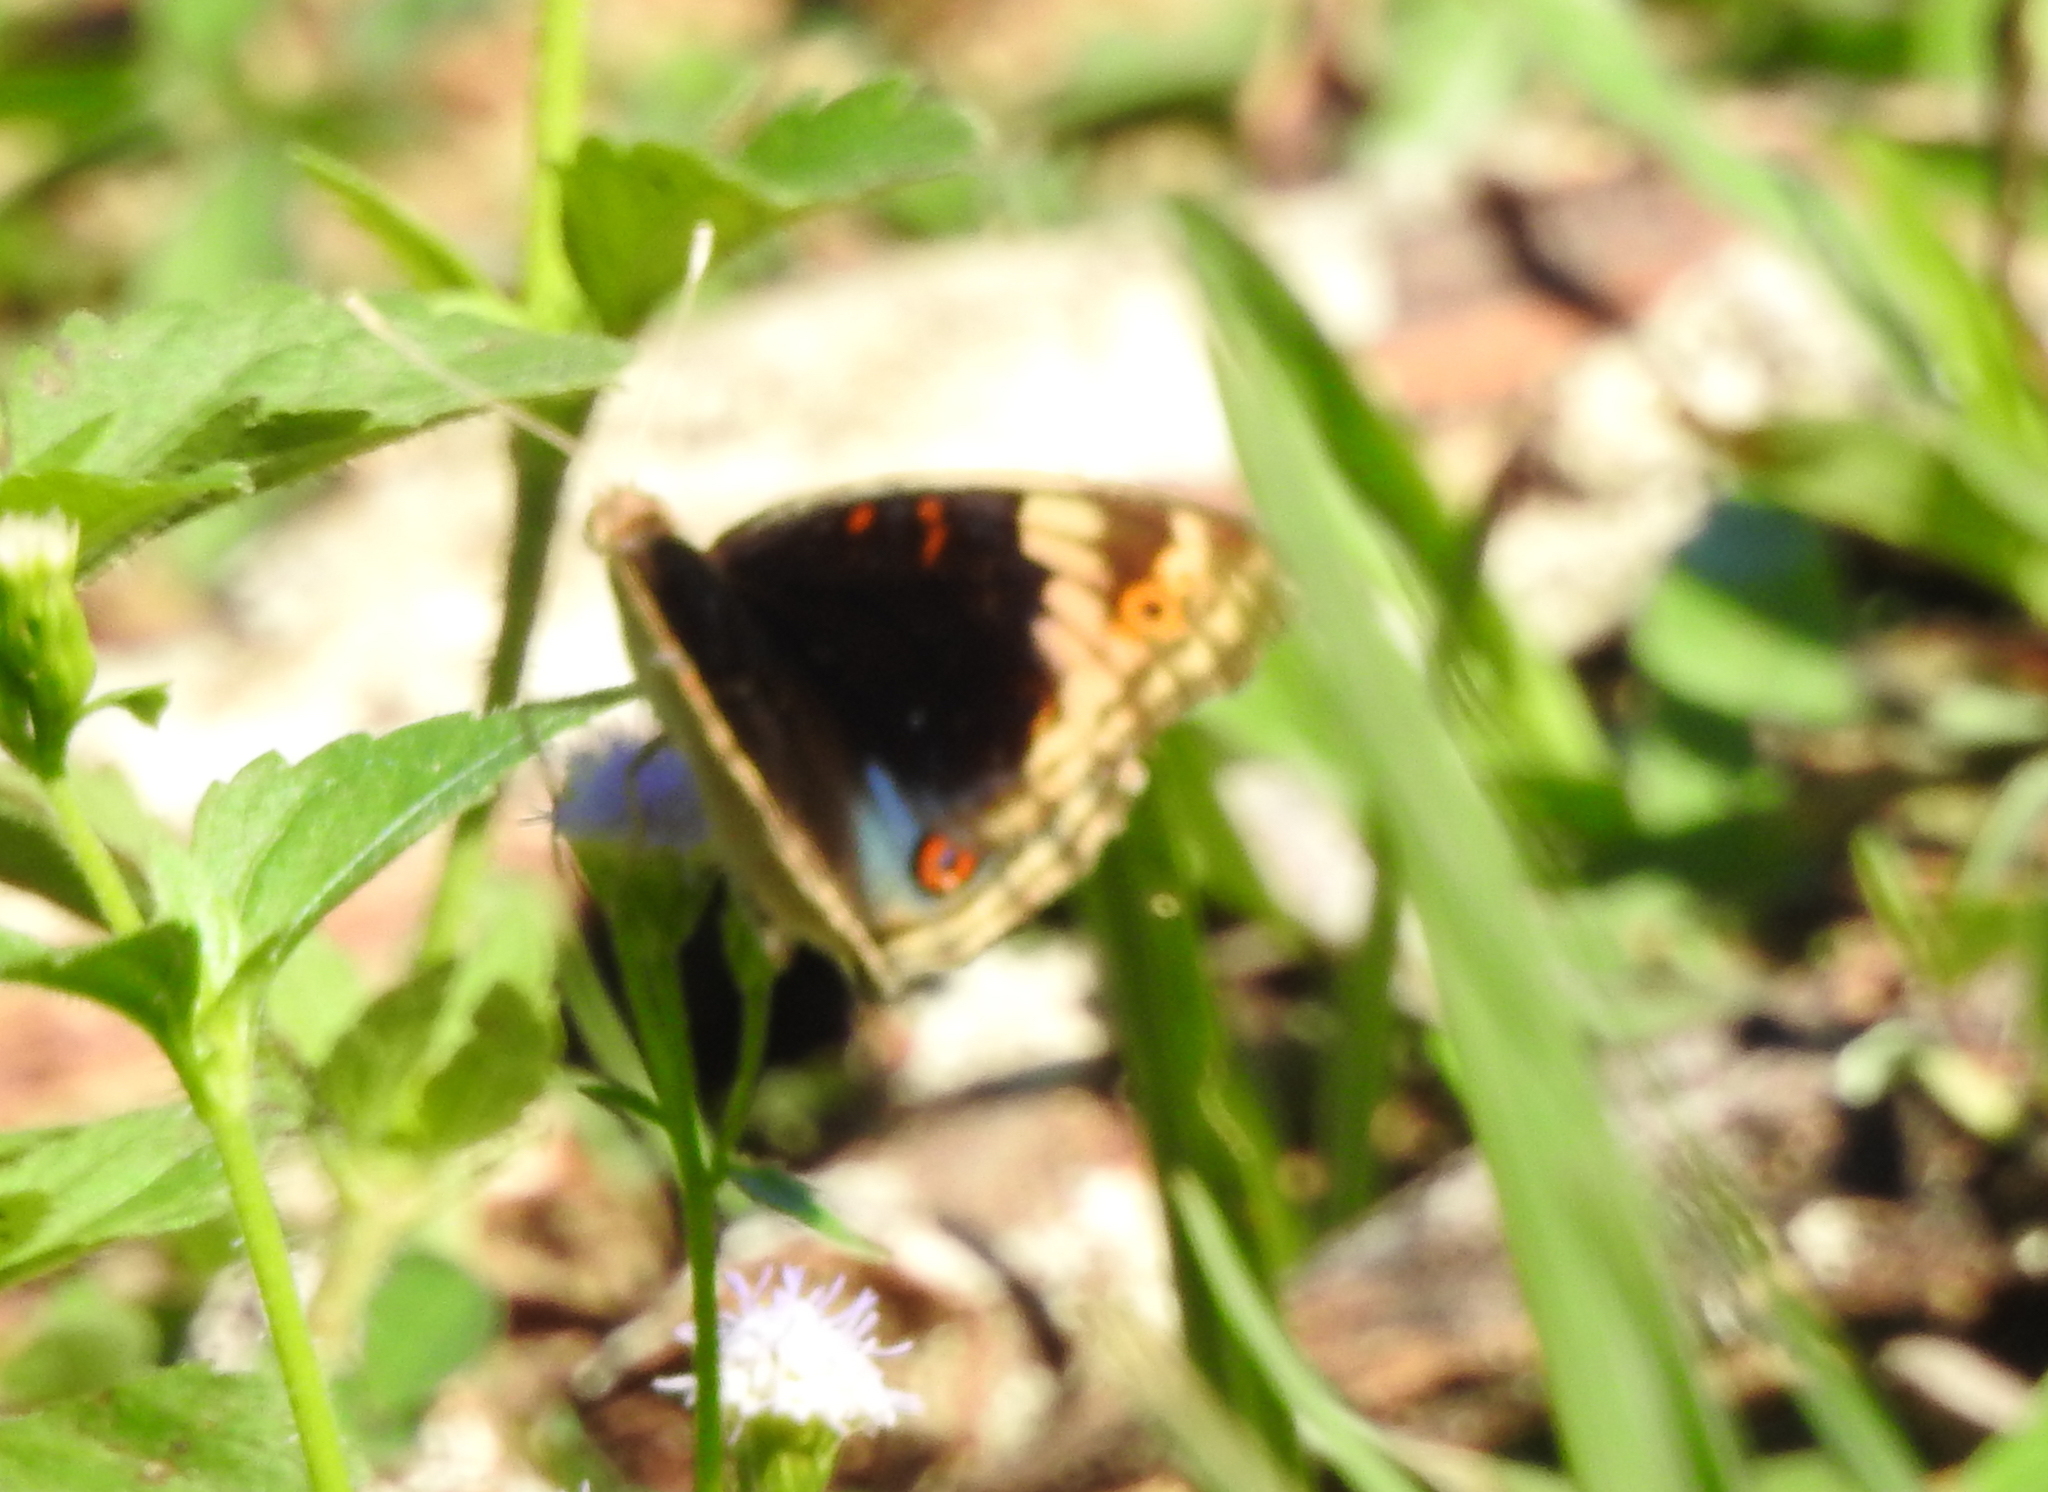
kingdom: Animalia
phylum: Arthropoda
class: Insecta
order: Lepidoptera
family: Nymphalidae
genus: Junonia
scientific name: Junonia orithya
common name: Blue pansy
